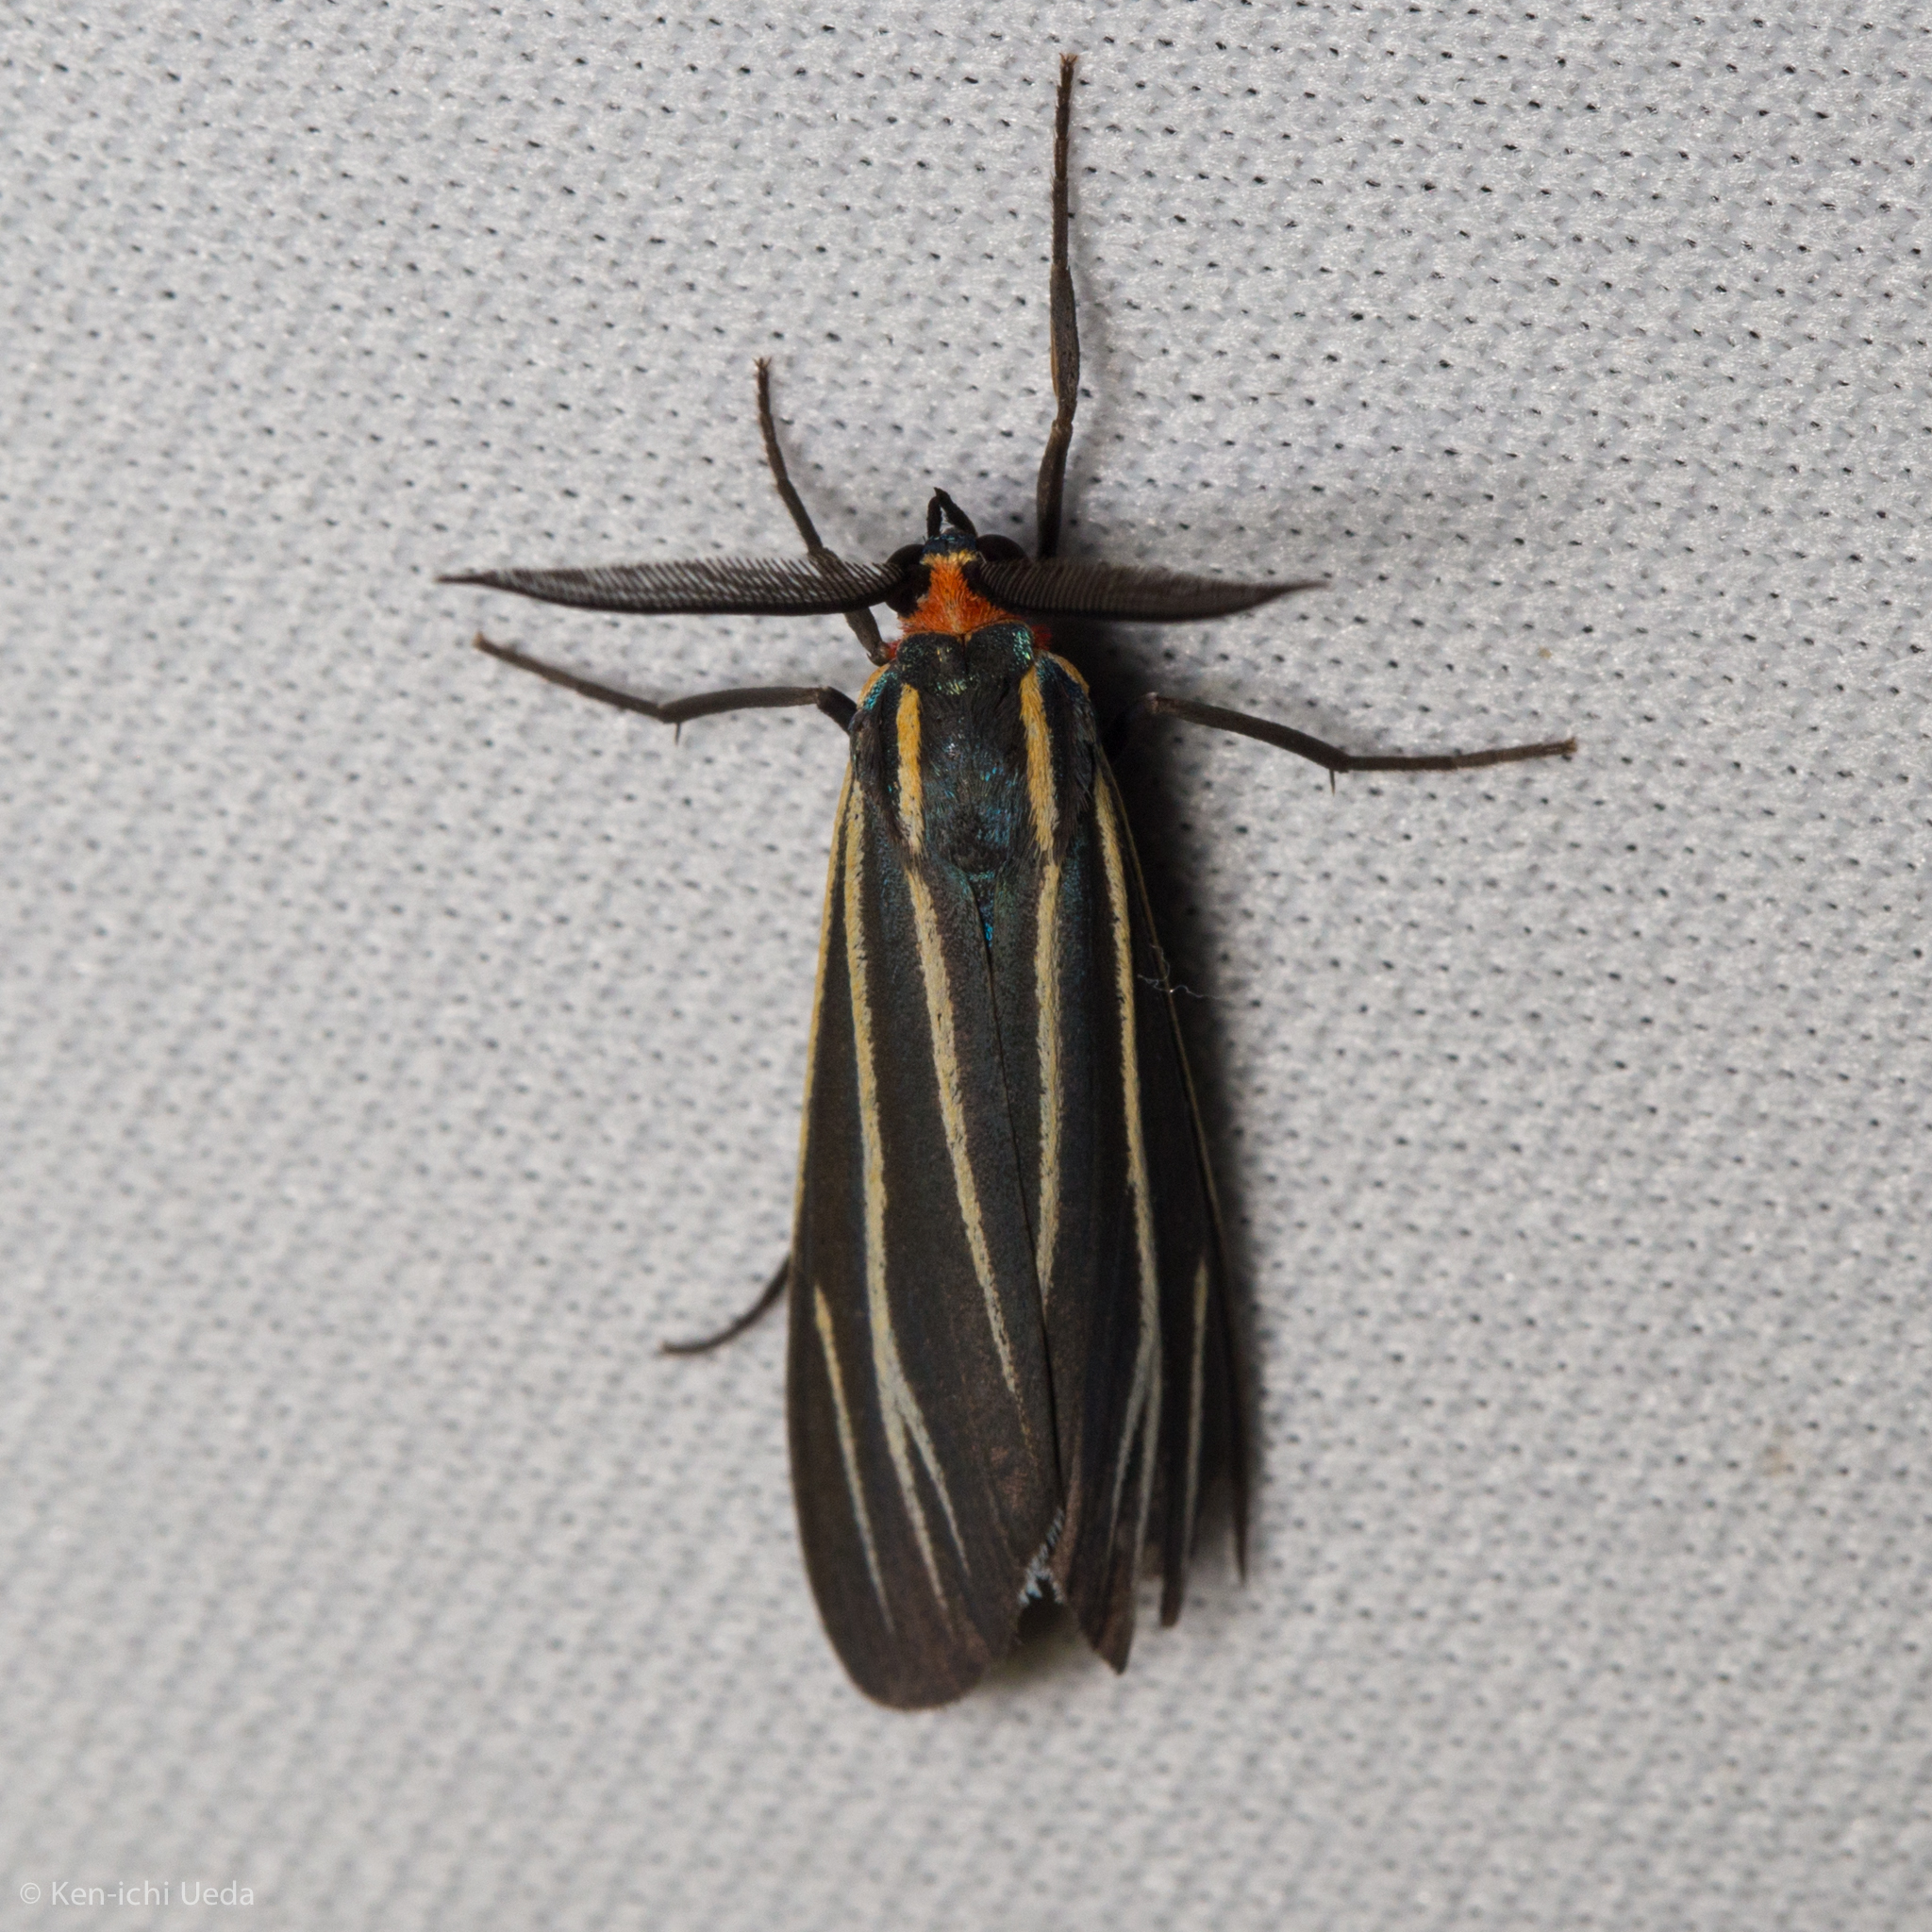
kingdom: Animalia
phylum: Arthropoda
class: Insecta
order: Lepidoptera
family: Erebidae
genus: Ctenucha
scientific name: Ctenucha venosa
